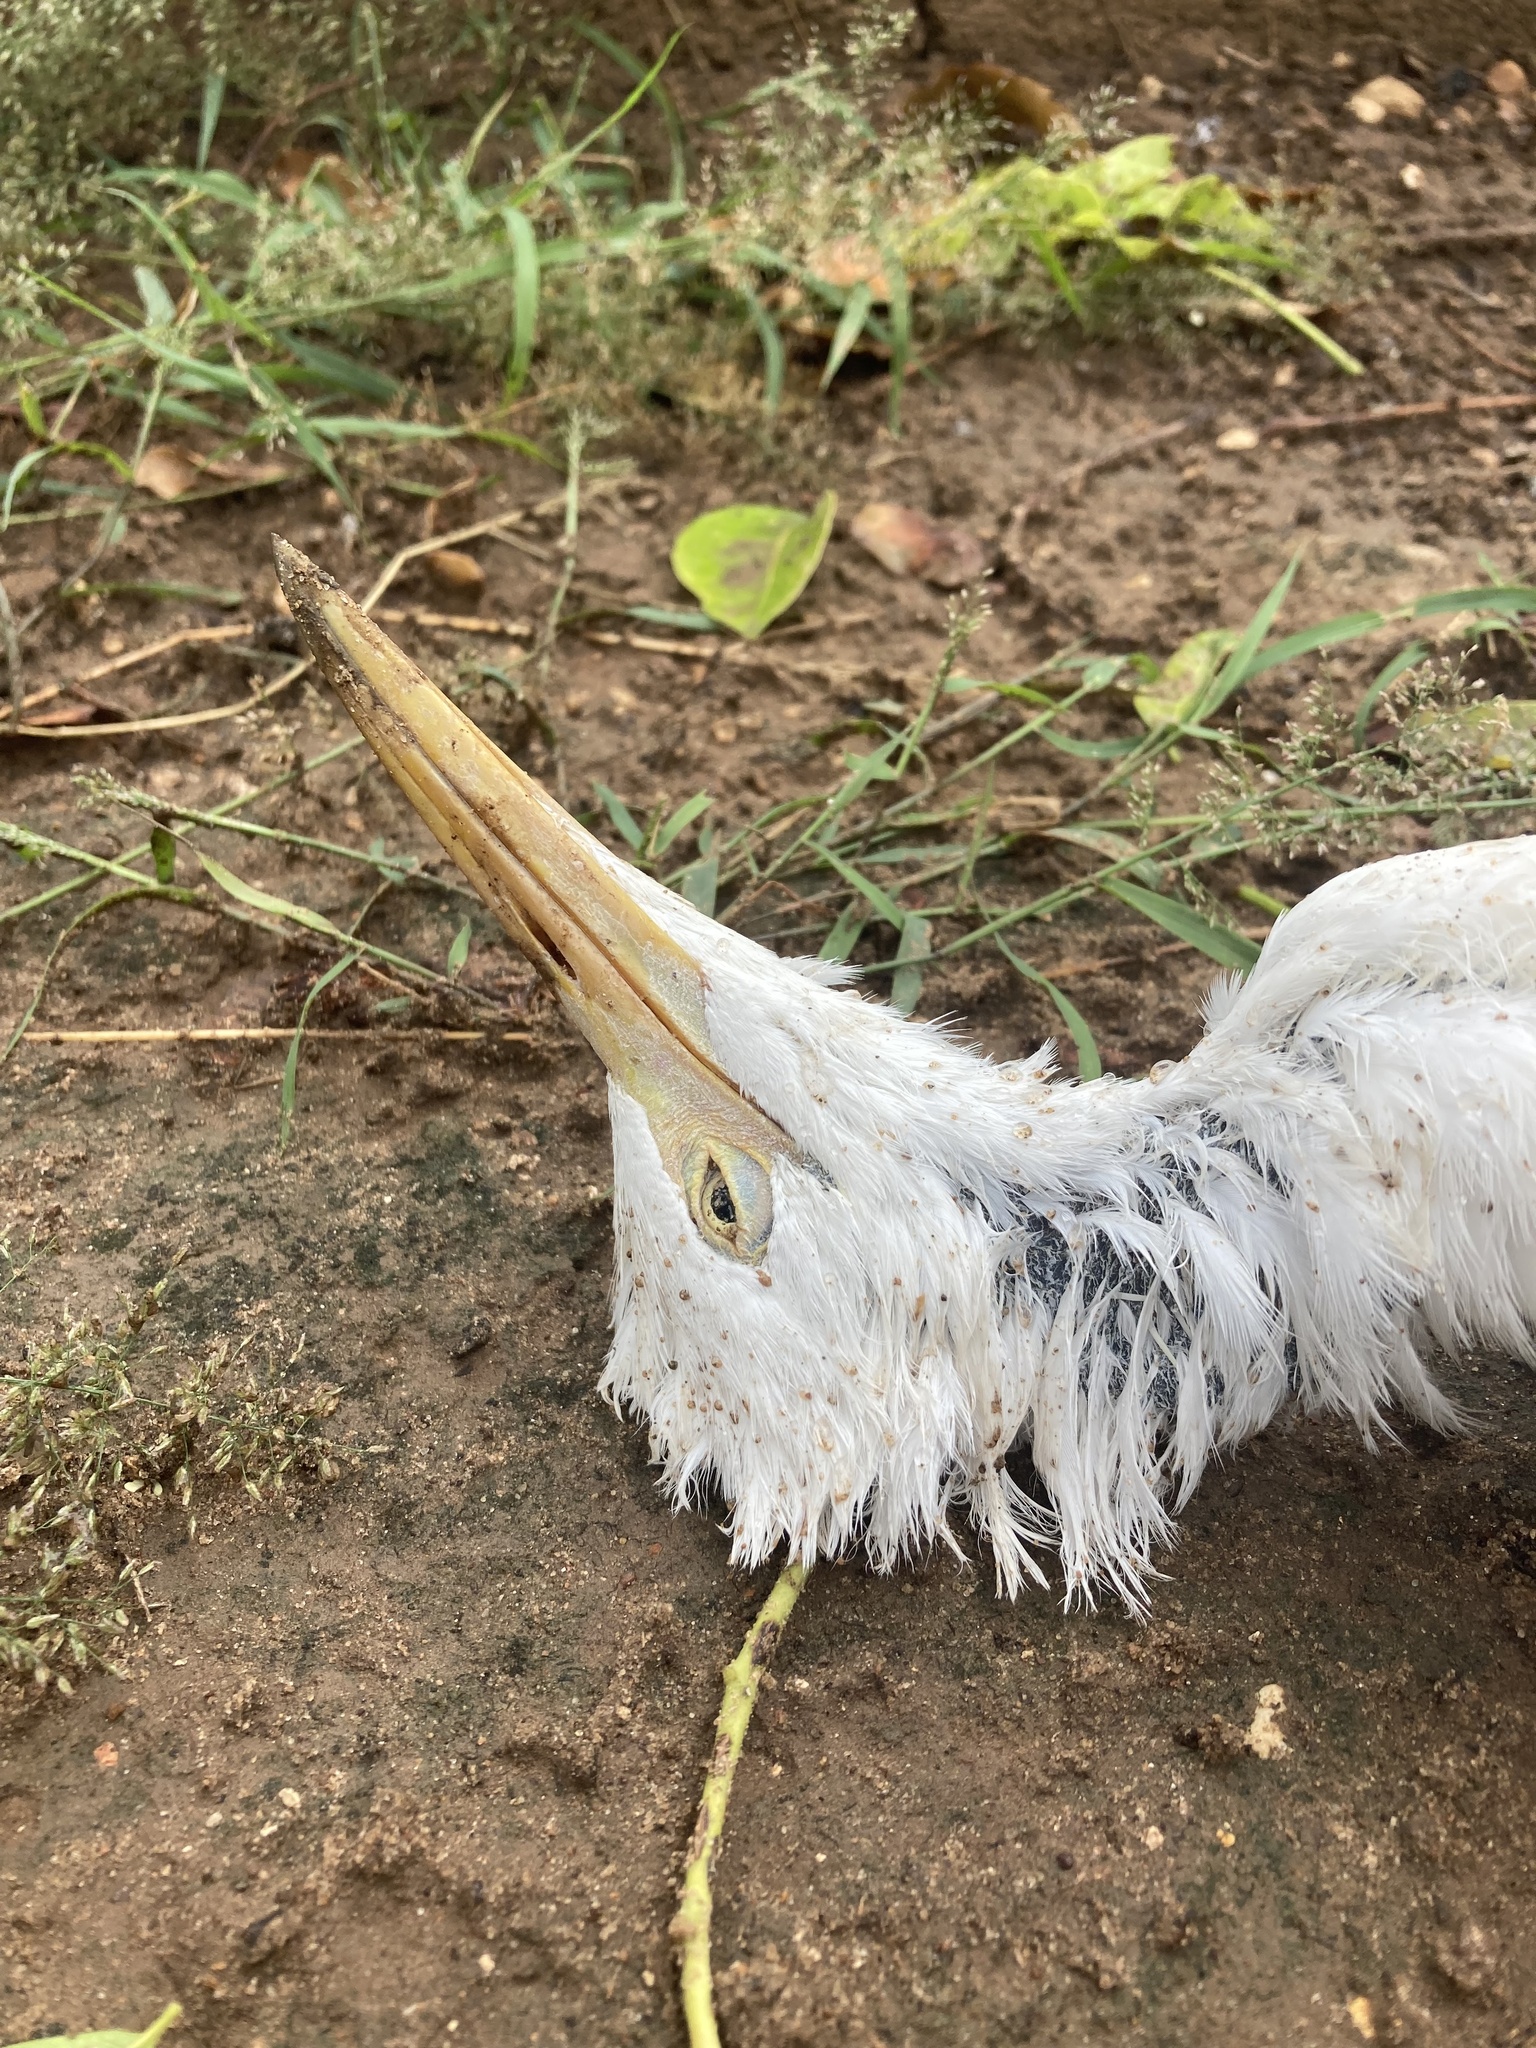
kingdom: Animalia
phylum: Chordata
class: Aves
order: Pelecaniformes
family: Ardeidae
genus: Bubulcus
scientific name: Bubulcus ibis
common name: Cattle egret
